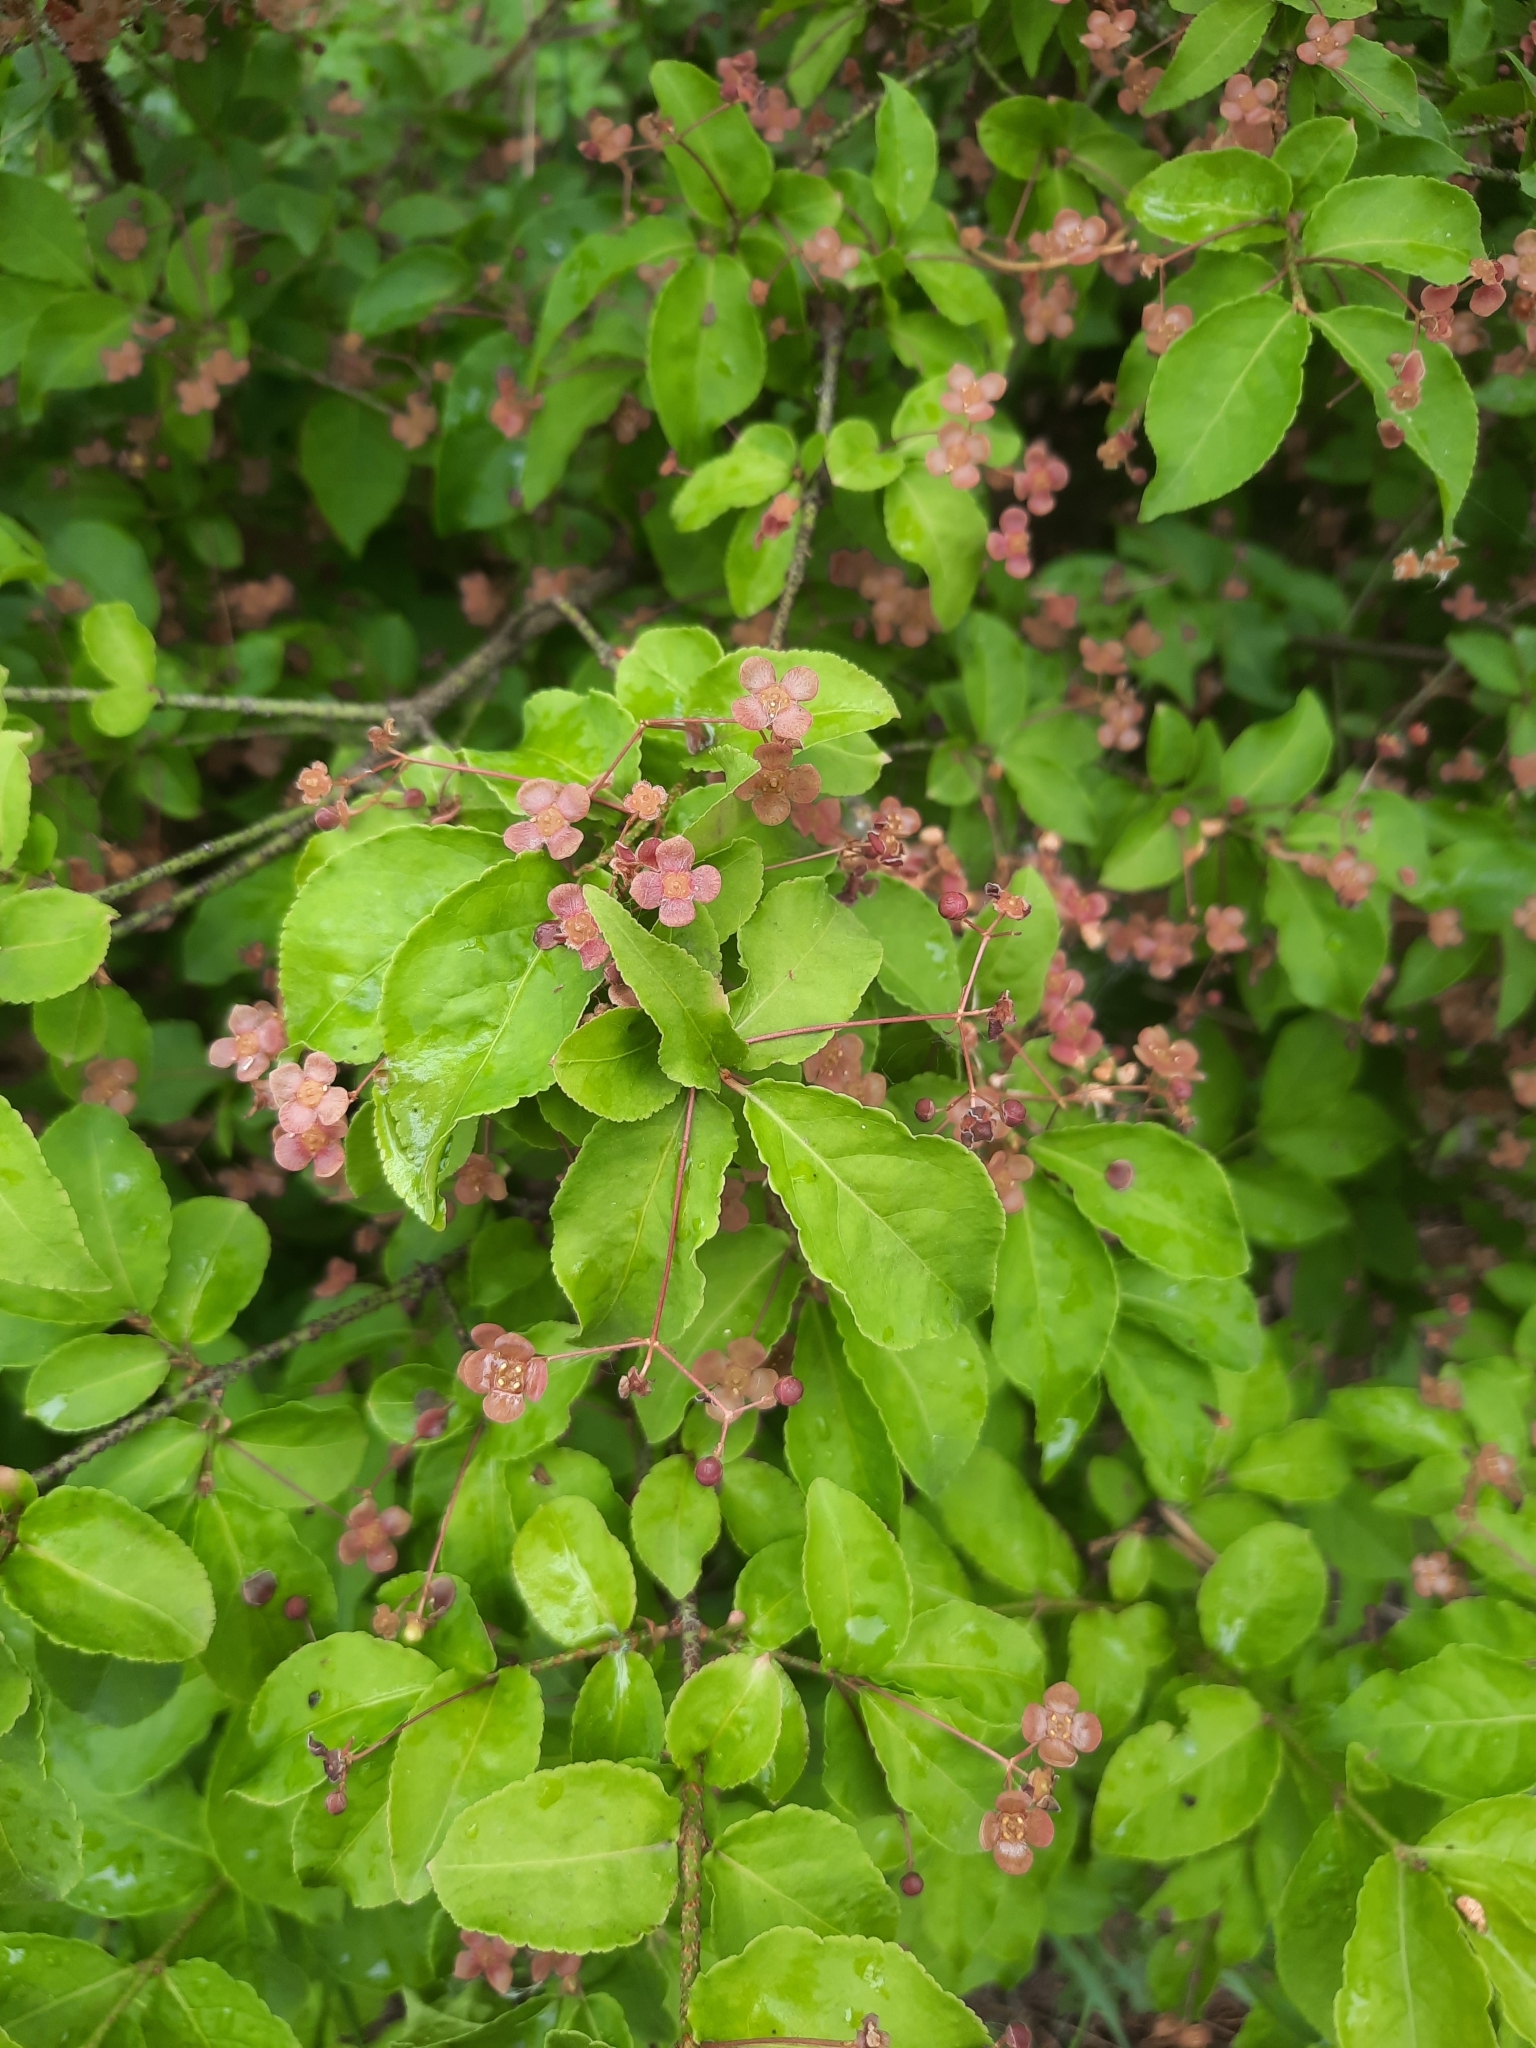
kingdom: Plantae
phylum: Tracheophyta
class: Magnoliopsida
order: Celastrales
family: Celastraceae
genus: Euonymus
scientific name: Euonymus verrucosus
